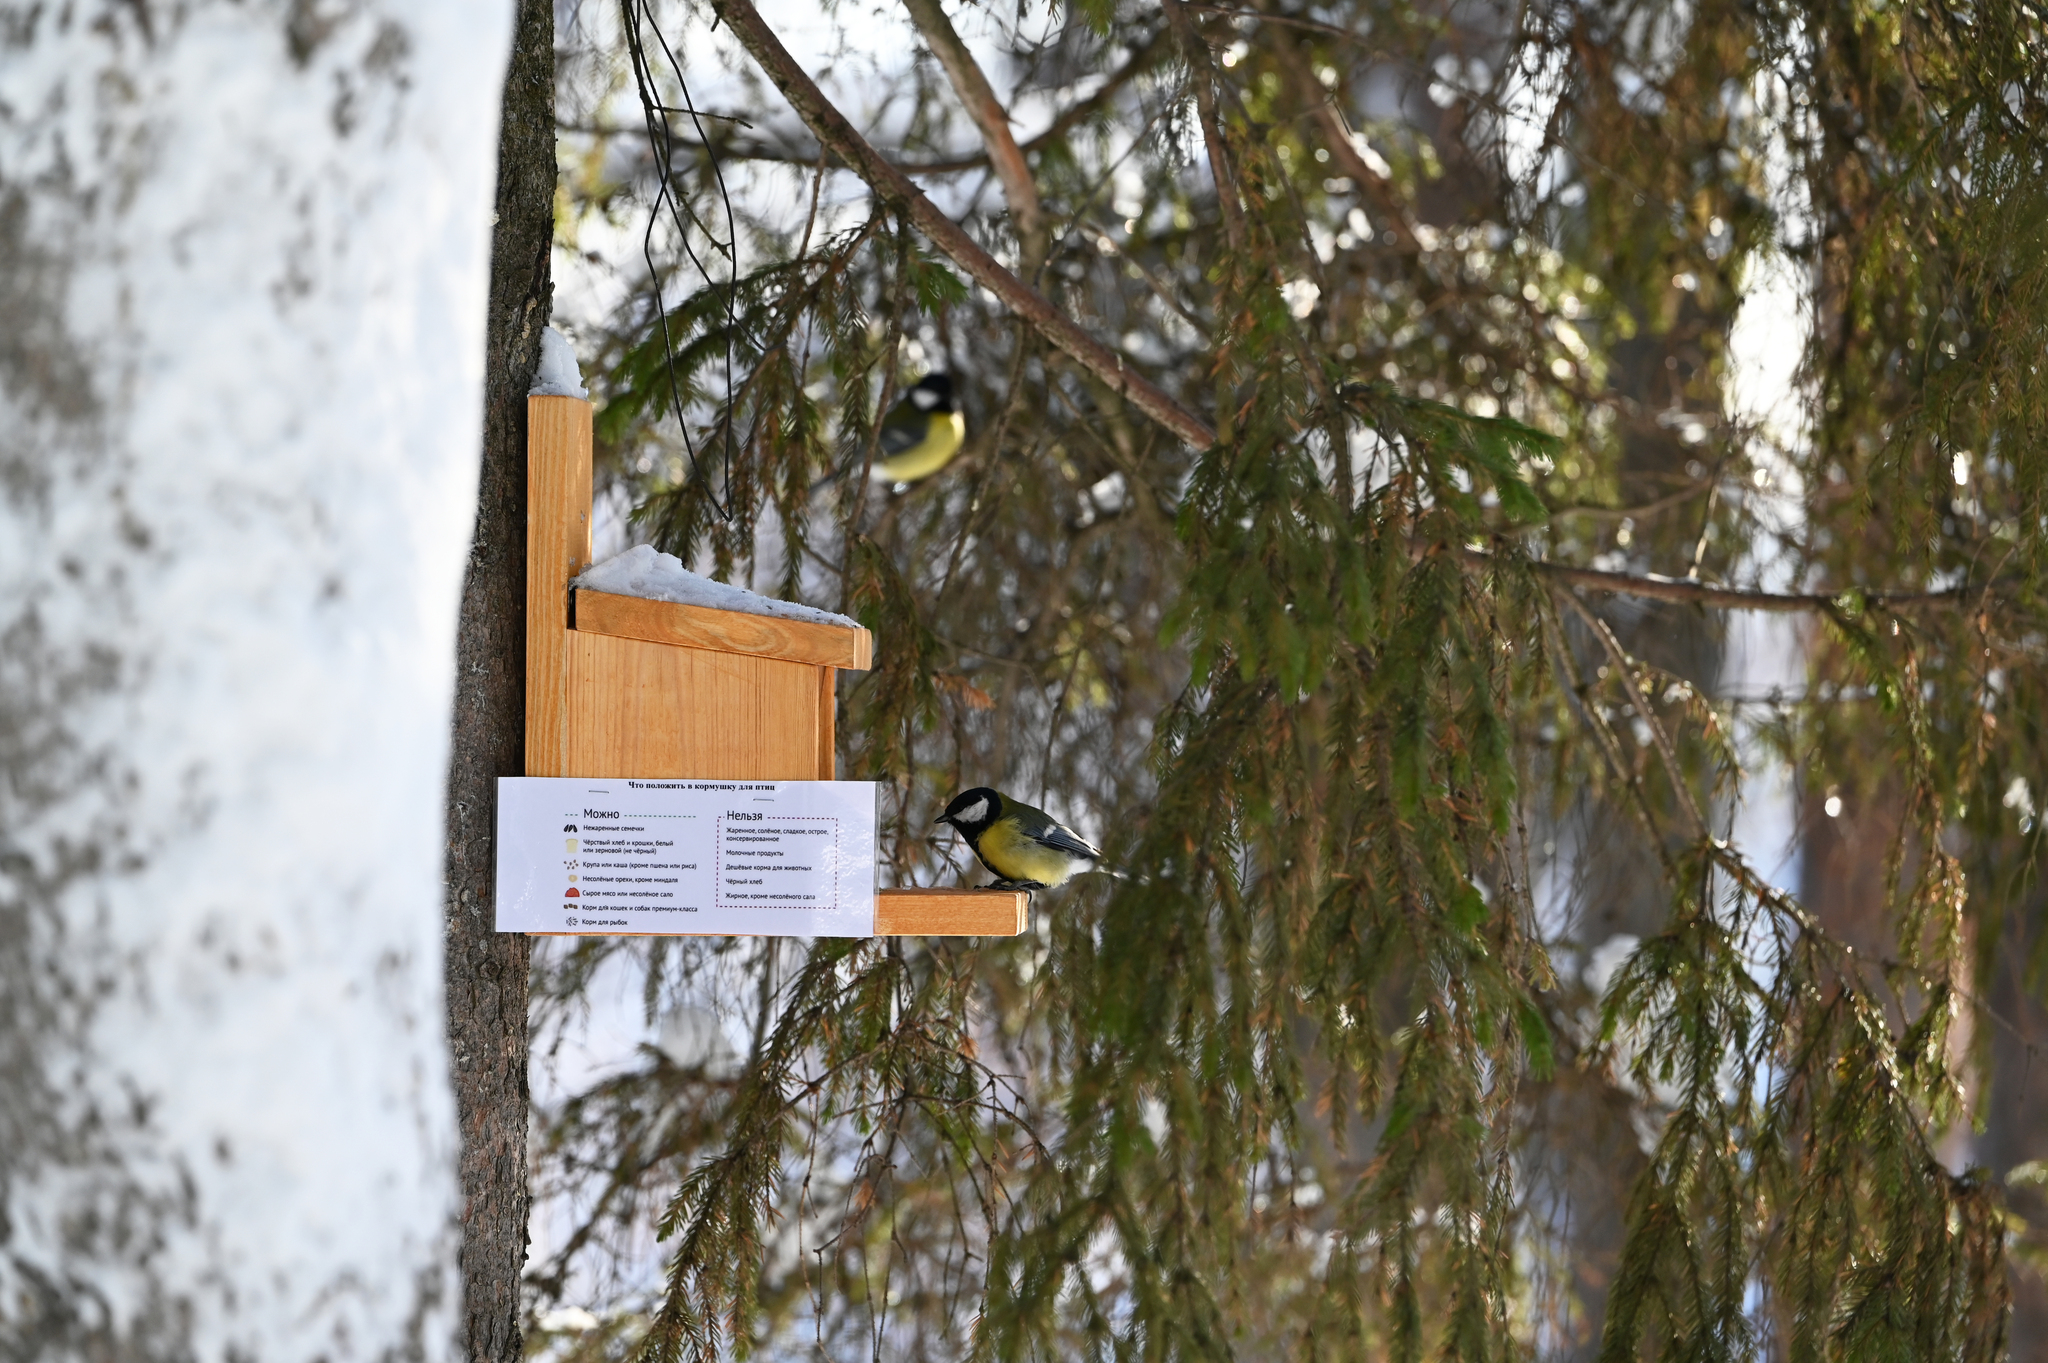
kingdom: Animalia
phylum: Chordata
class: Aves
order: Passeriformes
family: Paridae
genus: Parus
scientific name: Parus major
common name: Great tit
